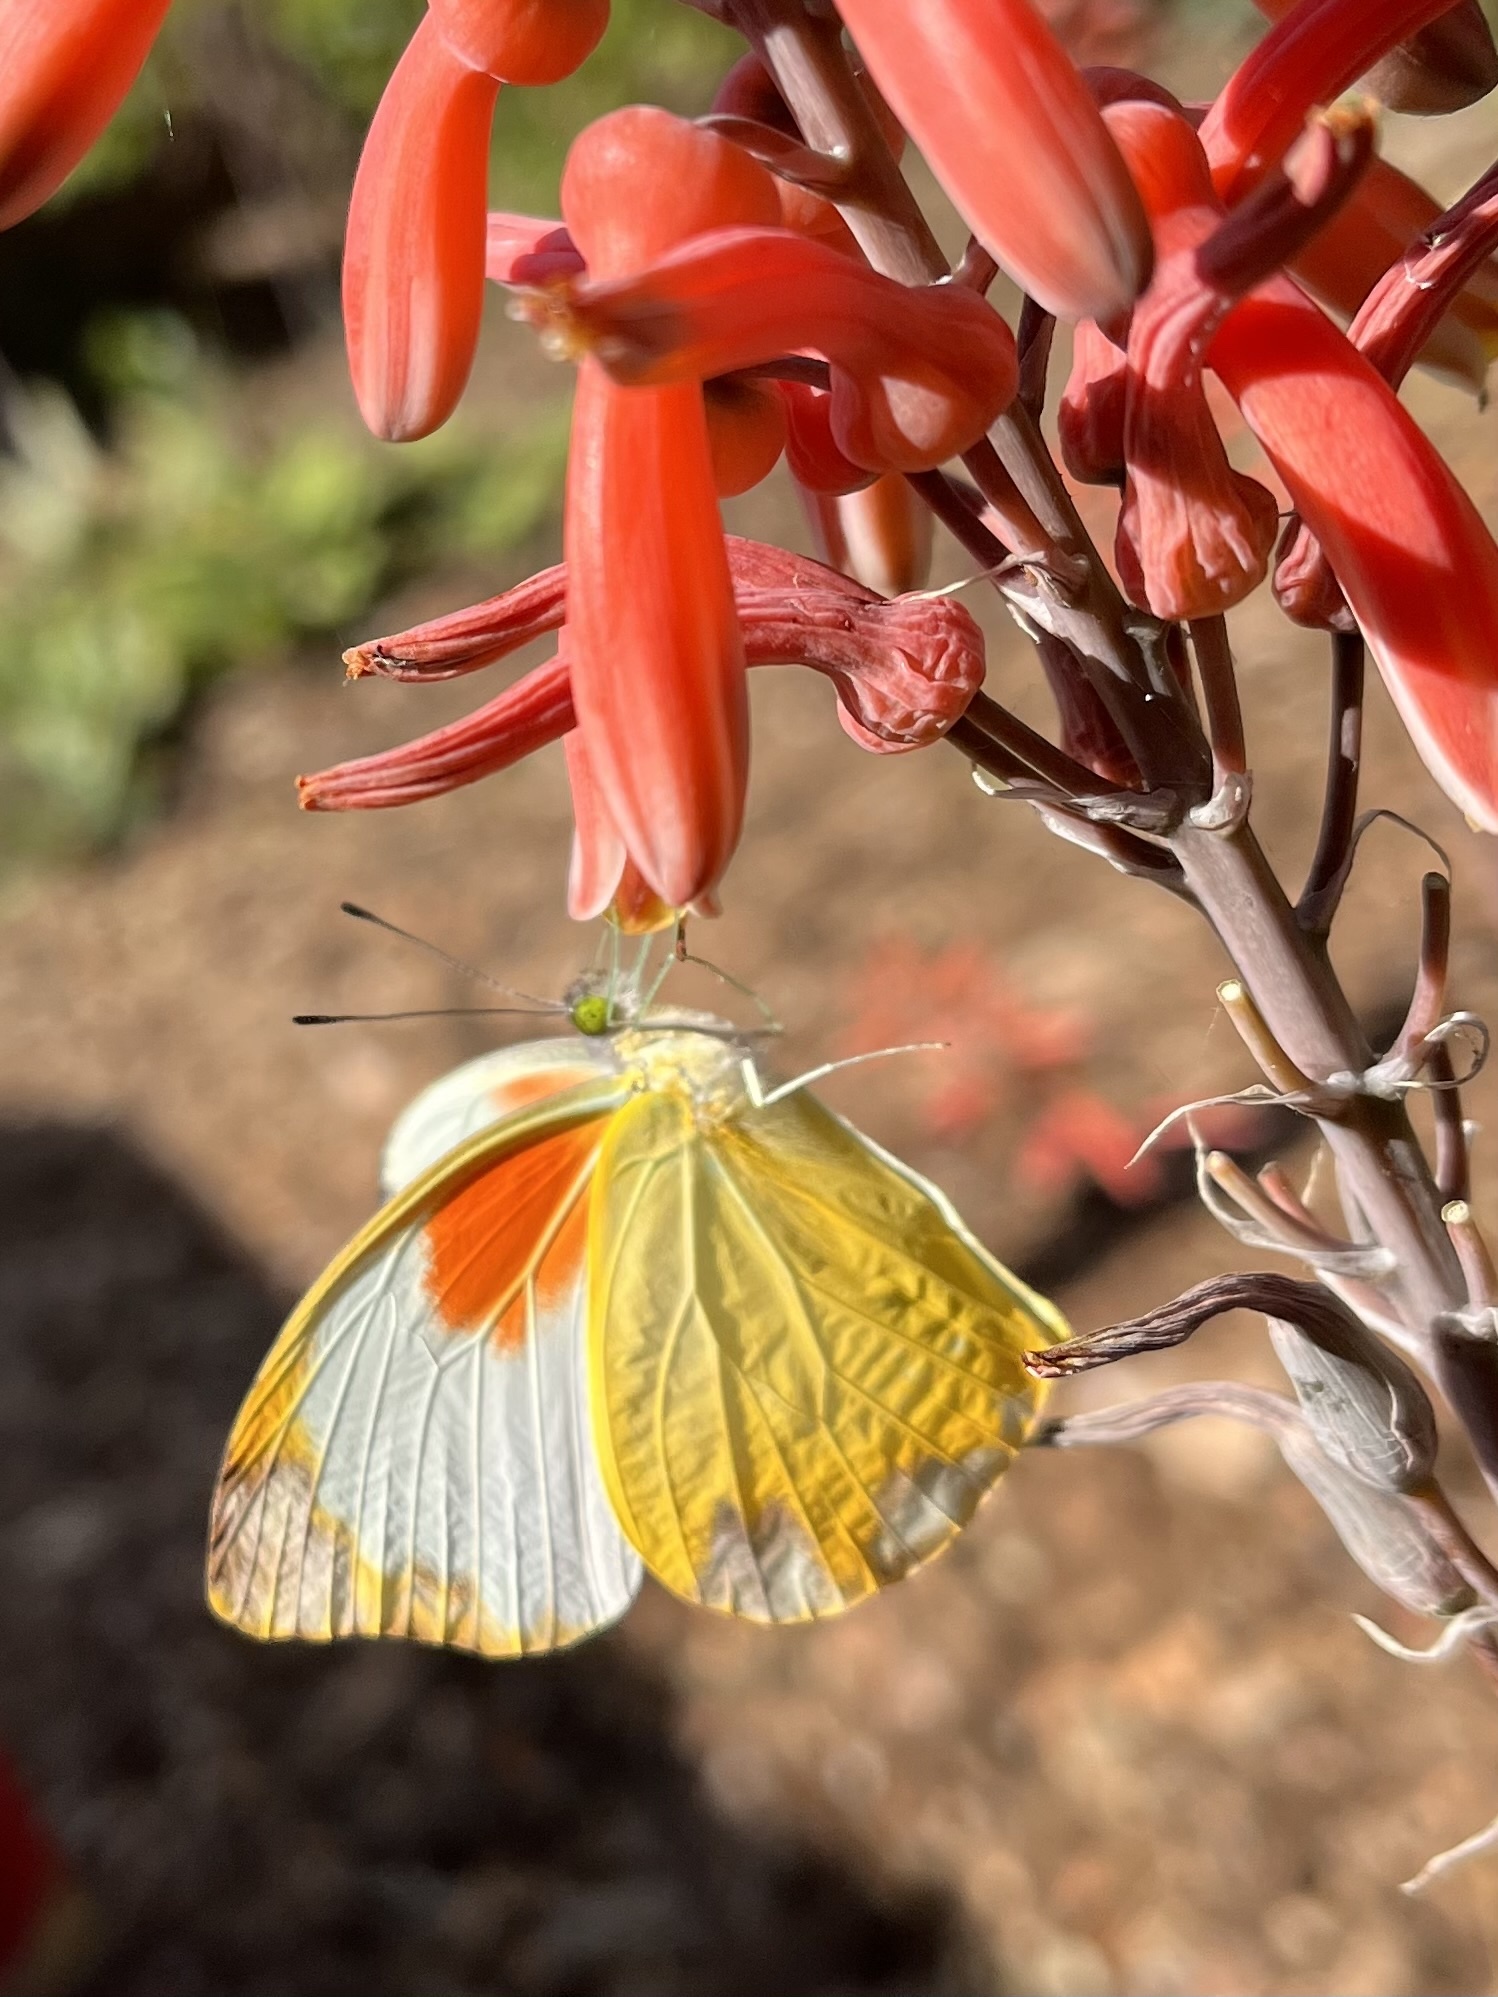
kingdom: Animalia
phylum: Arthropoda
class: Insecta
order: Lepidoptera
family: Pieridae
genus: Nepheronia
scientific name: Nepheronia argia
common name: Large vagrant
